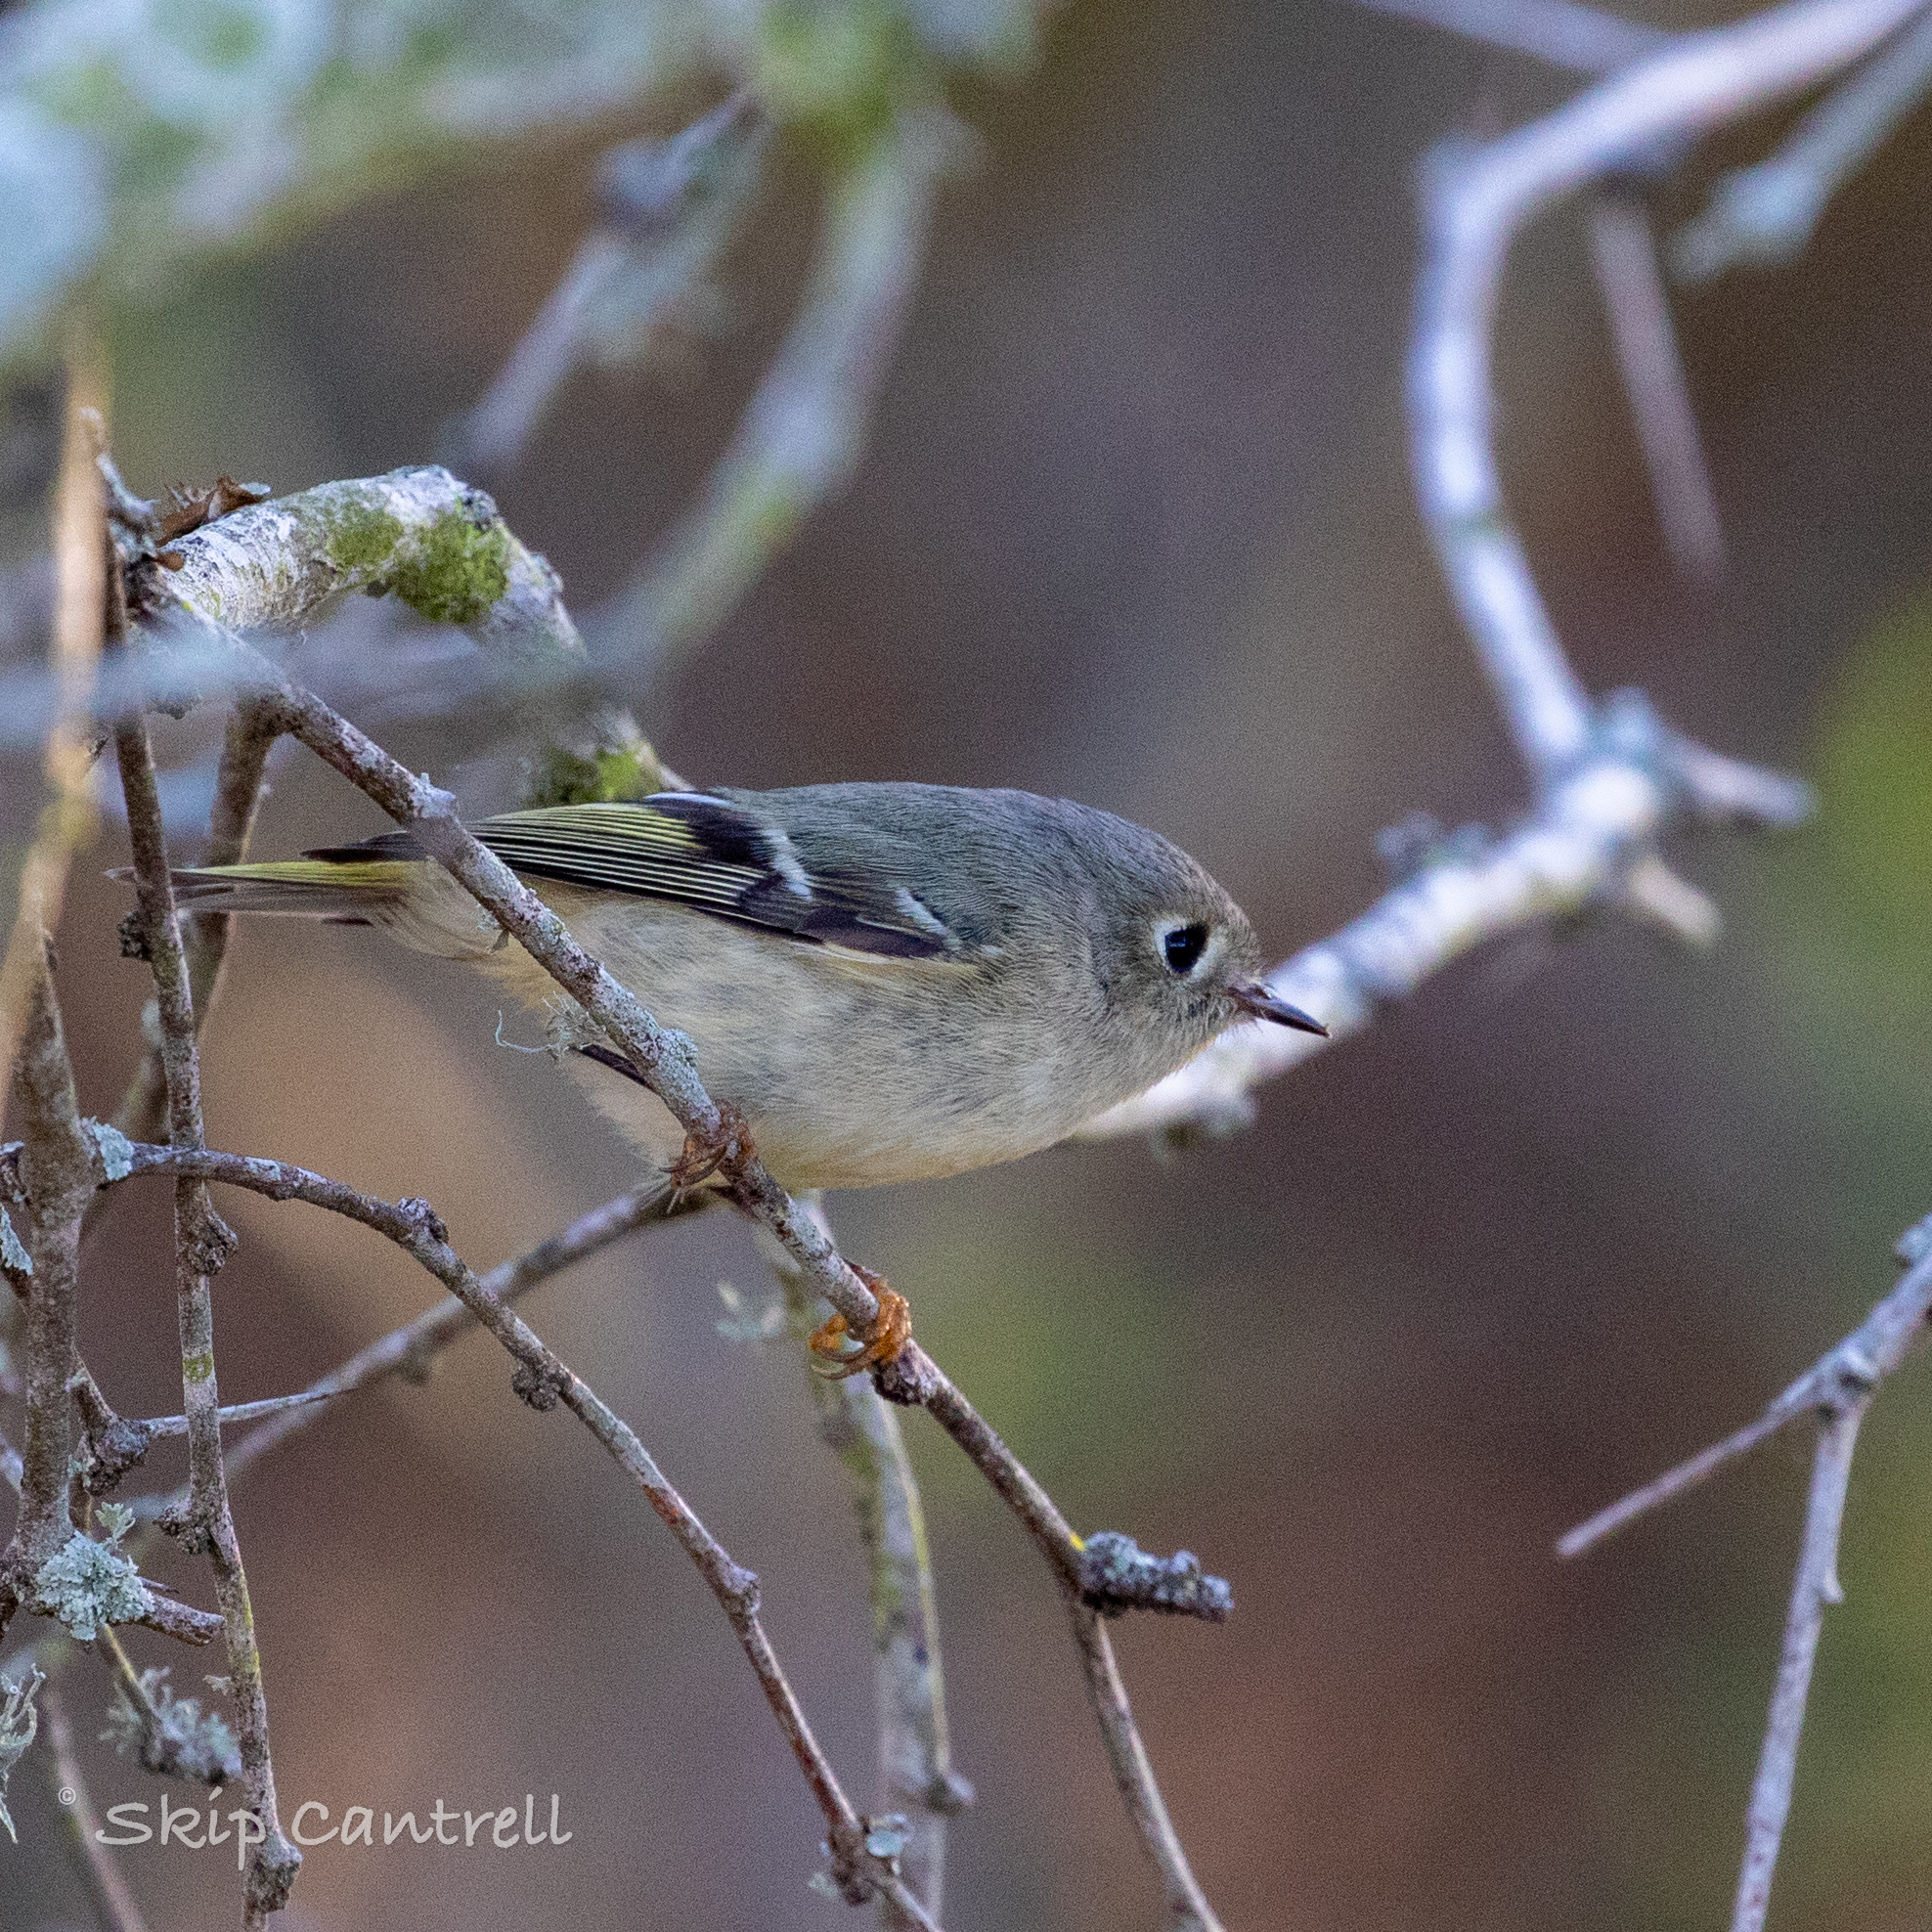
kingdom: Animalia
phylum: Chordata
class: Aves
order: Passeriformes
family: Regulidae
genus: Regulus
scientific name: Regulus calendula
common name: Ruby-crowned kinglet
